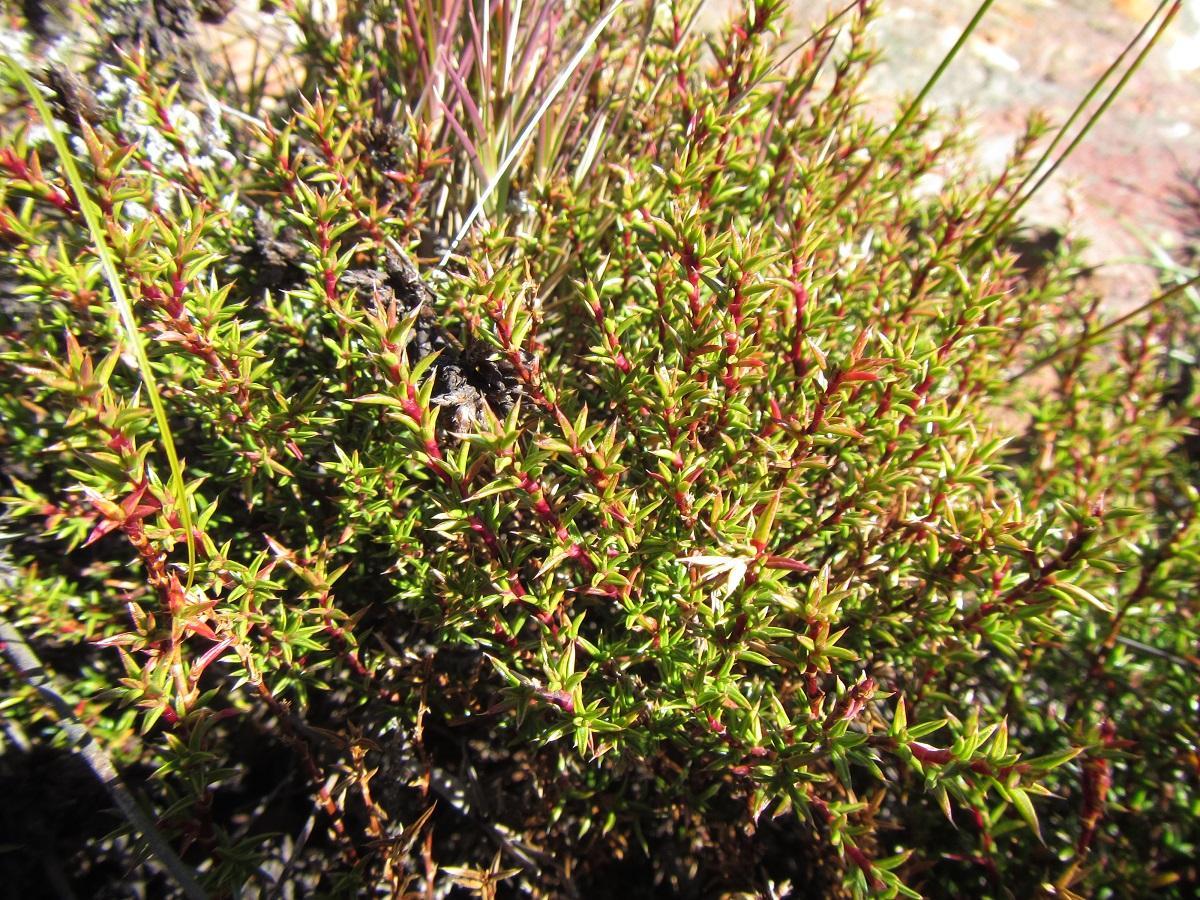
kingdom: Plantae
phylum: Tracheophyta
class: Magnoliopsida
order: Rosales
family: Rosaceae
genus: Cliffortia
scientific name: Cliffortia pungens
